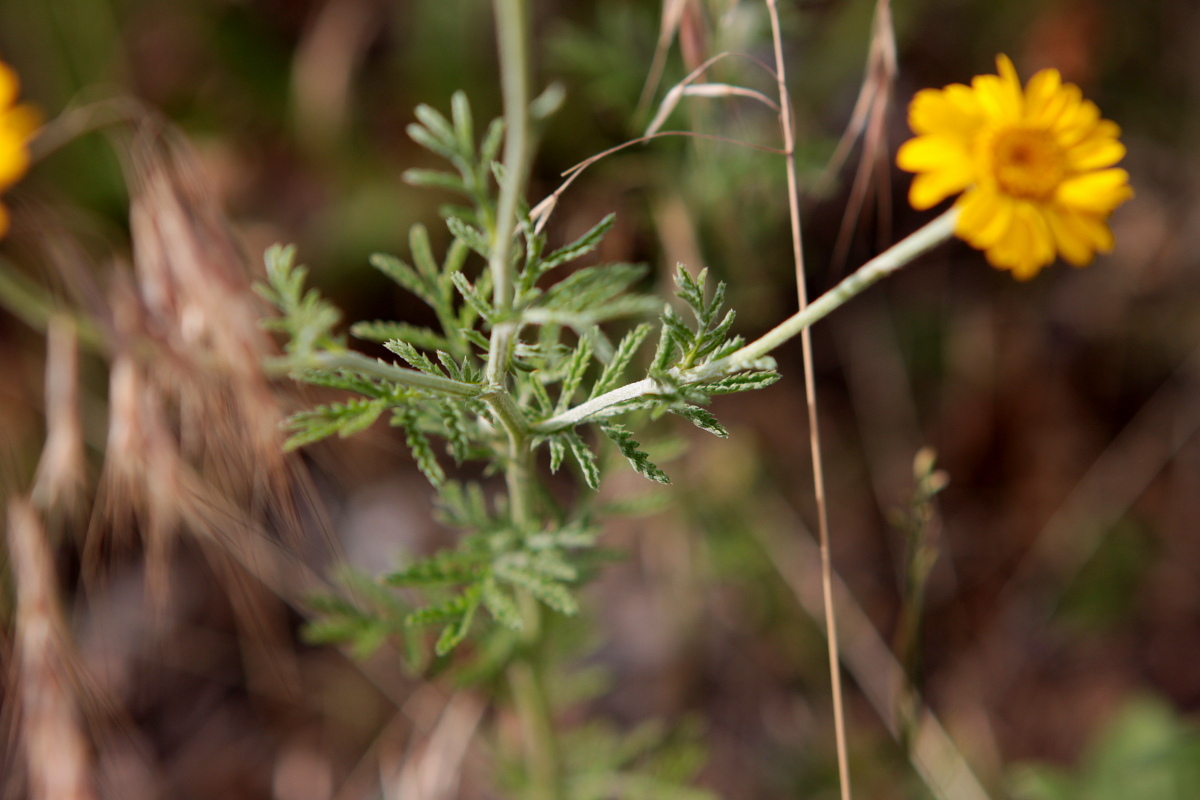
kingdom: Plantae
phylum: Tracheophyta
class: Magnoliopsida
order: Asterales
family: Asteraceae
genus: Cota
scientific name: Cota tinctoria
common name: Golden chamomile
